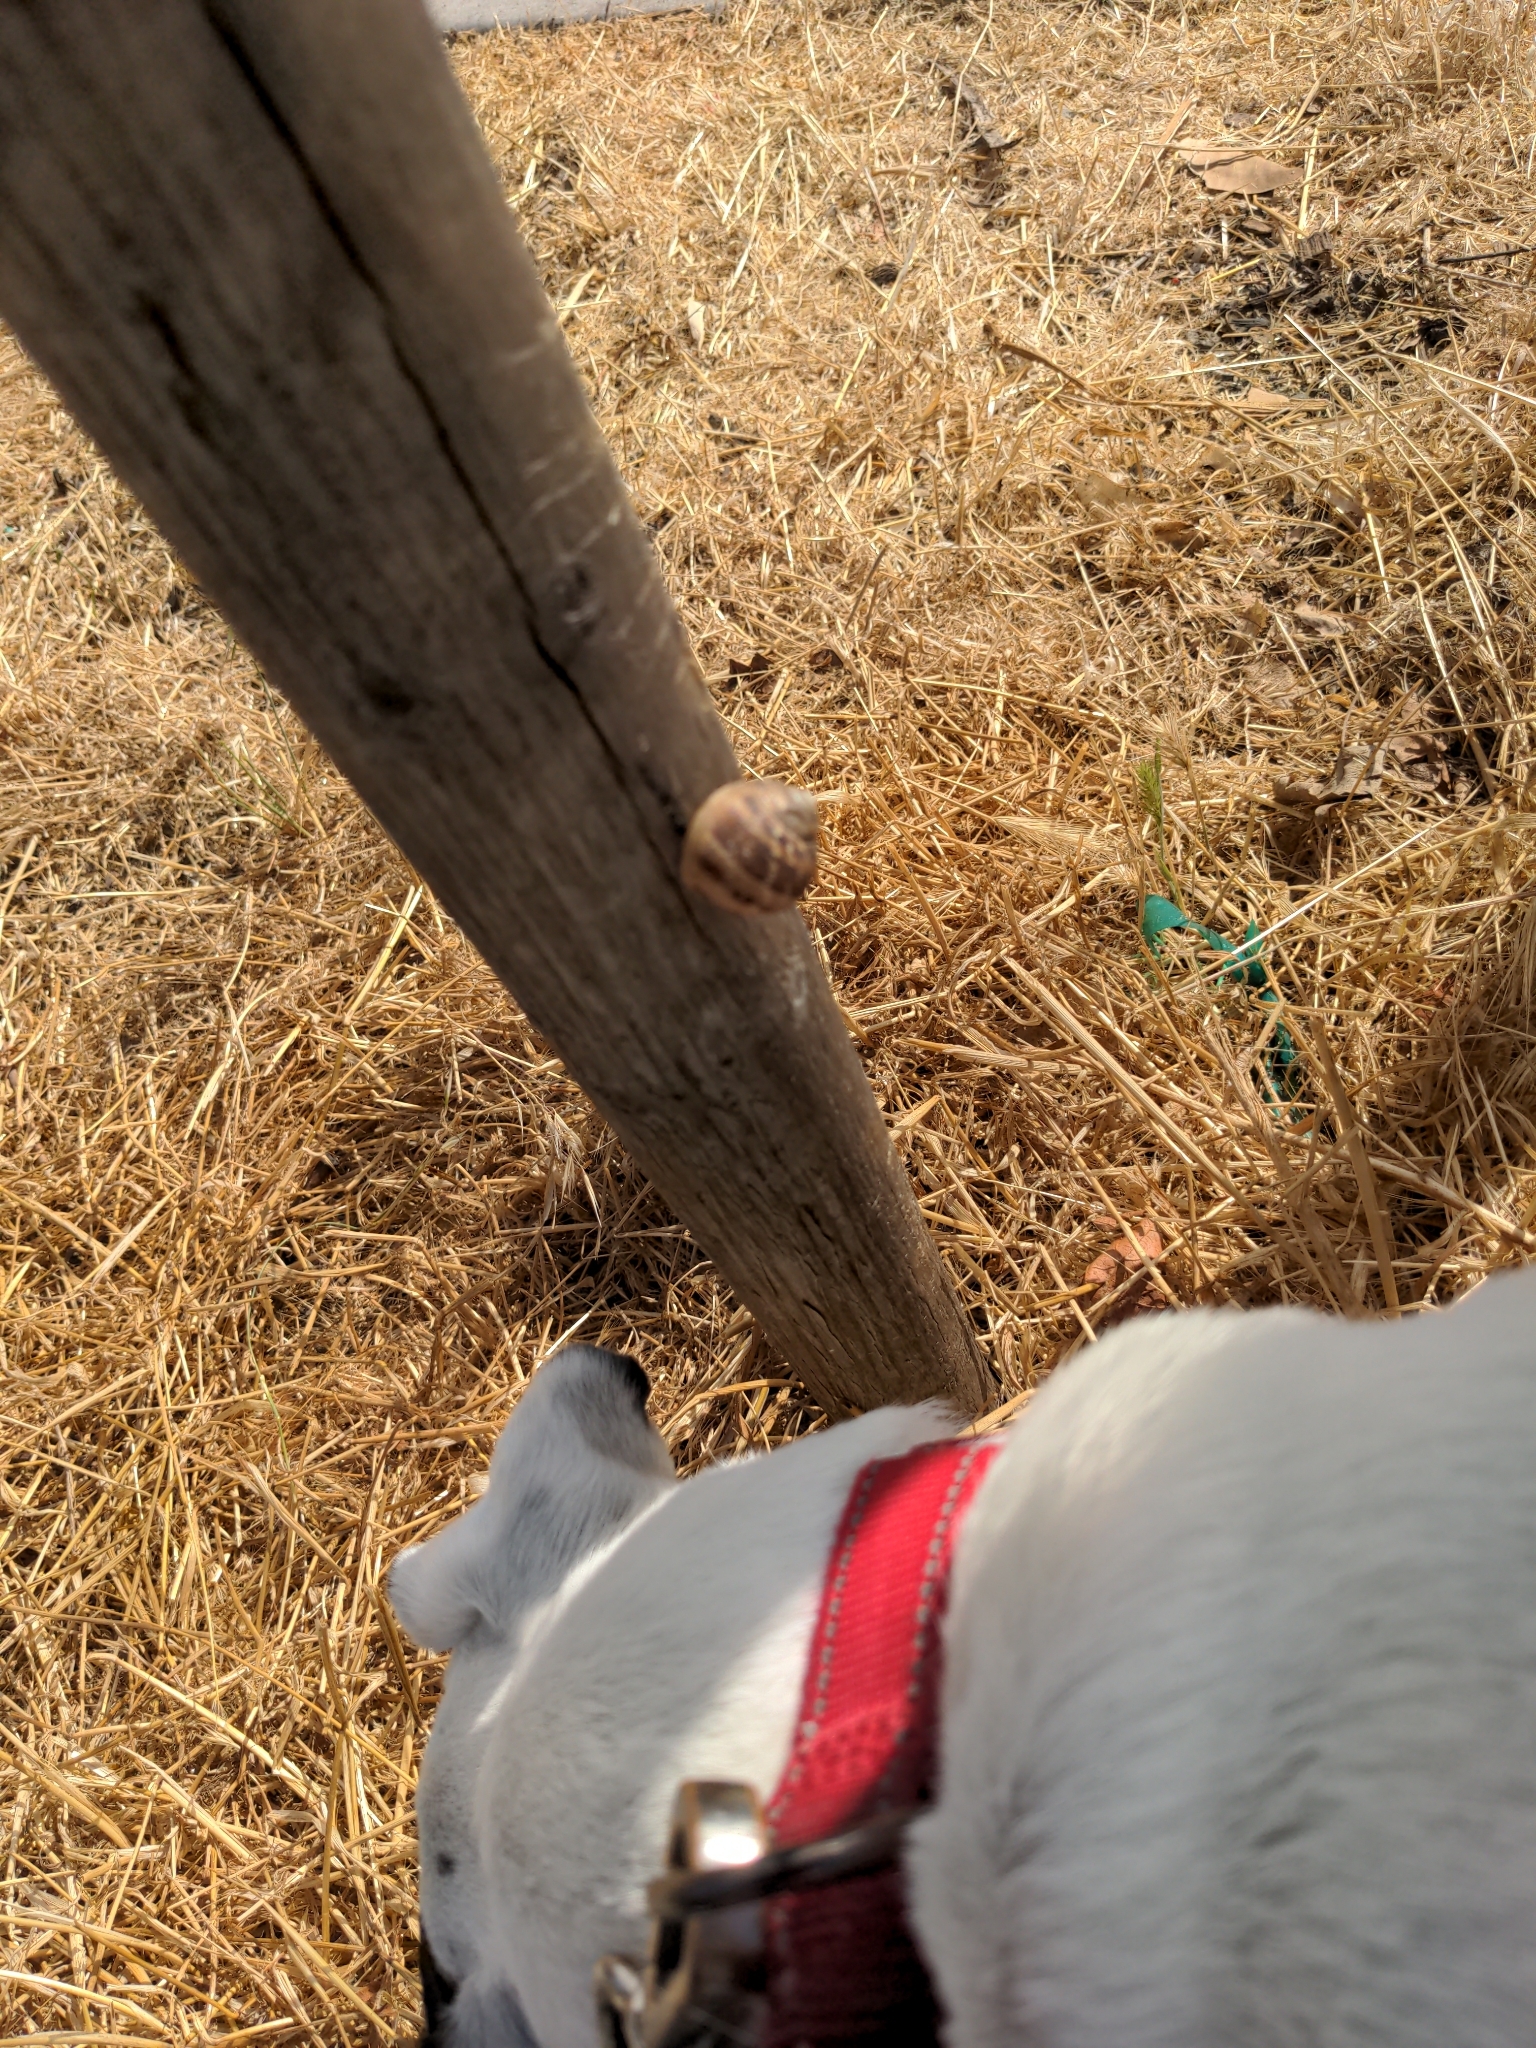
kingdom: Animalia
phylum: Mollusca
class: Gastropoda
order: Stylommatophora
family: Helicidae
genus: Cornu
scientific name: Cornu aspersum
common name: Brown garden snail
